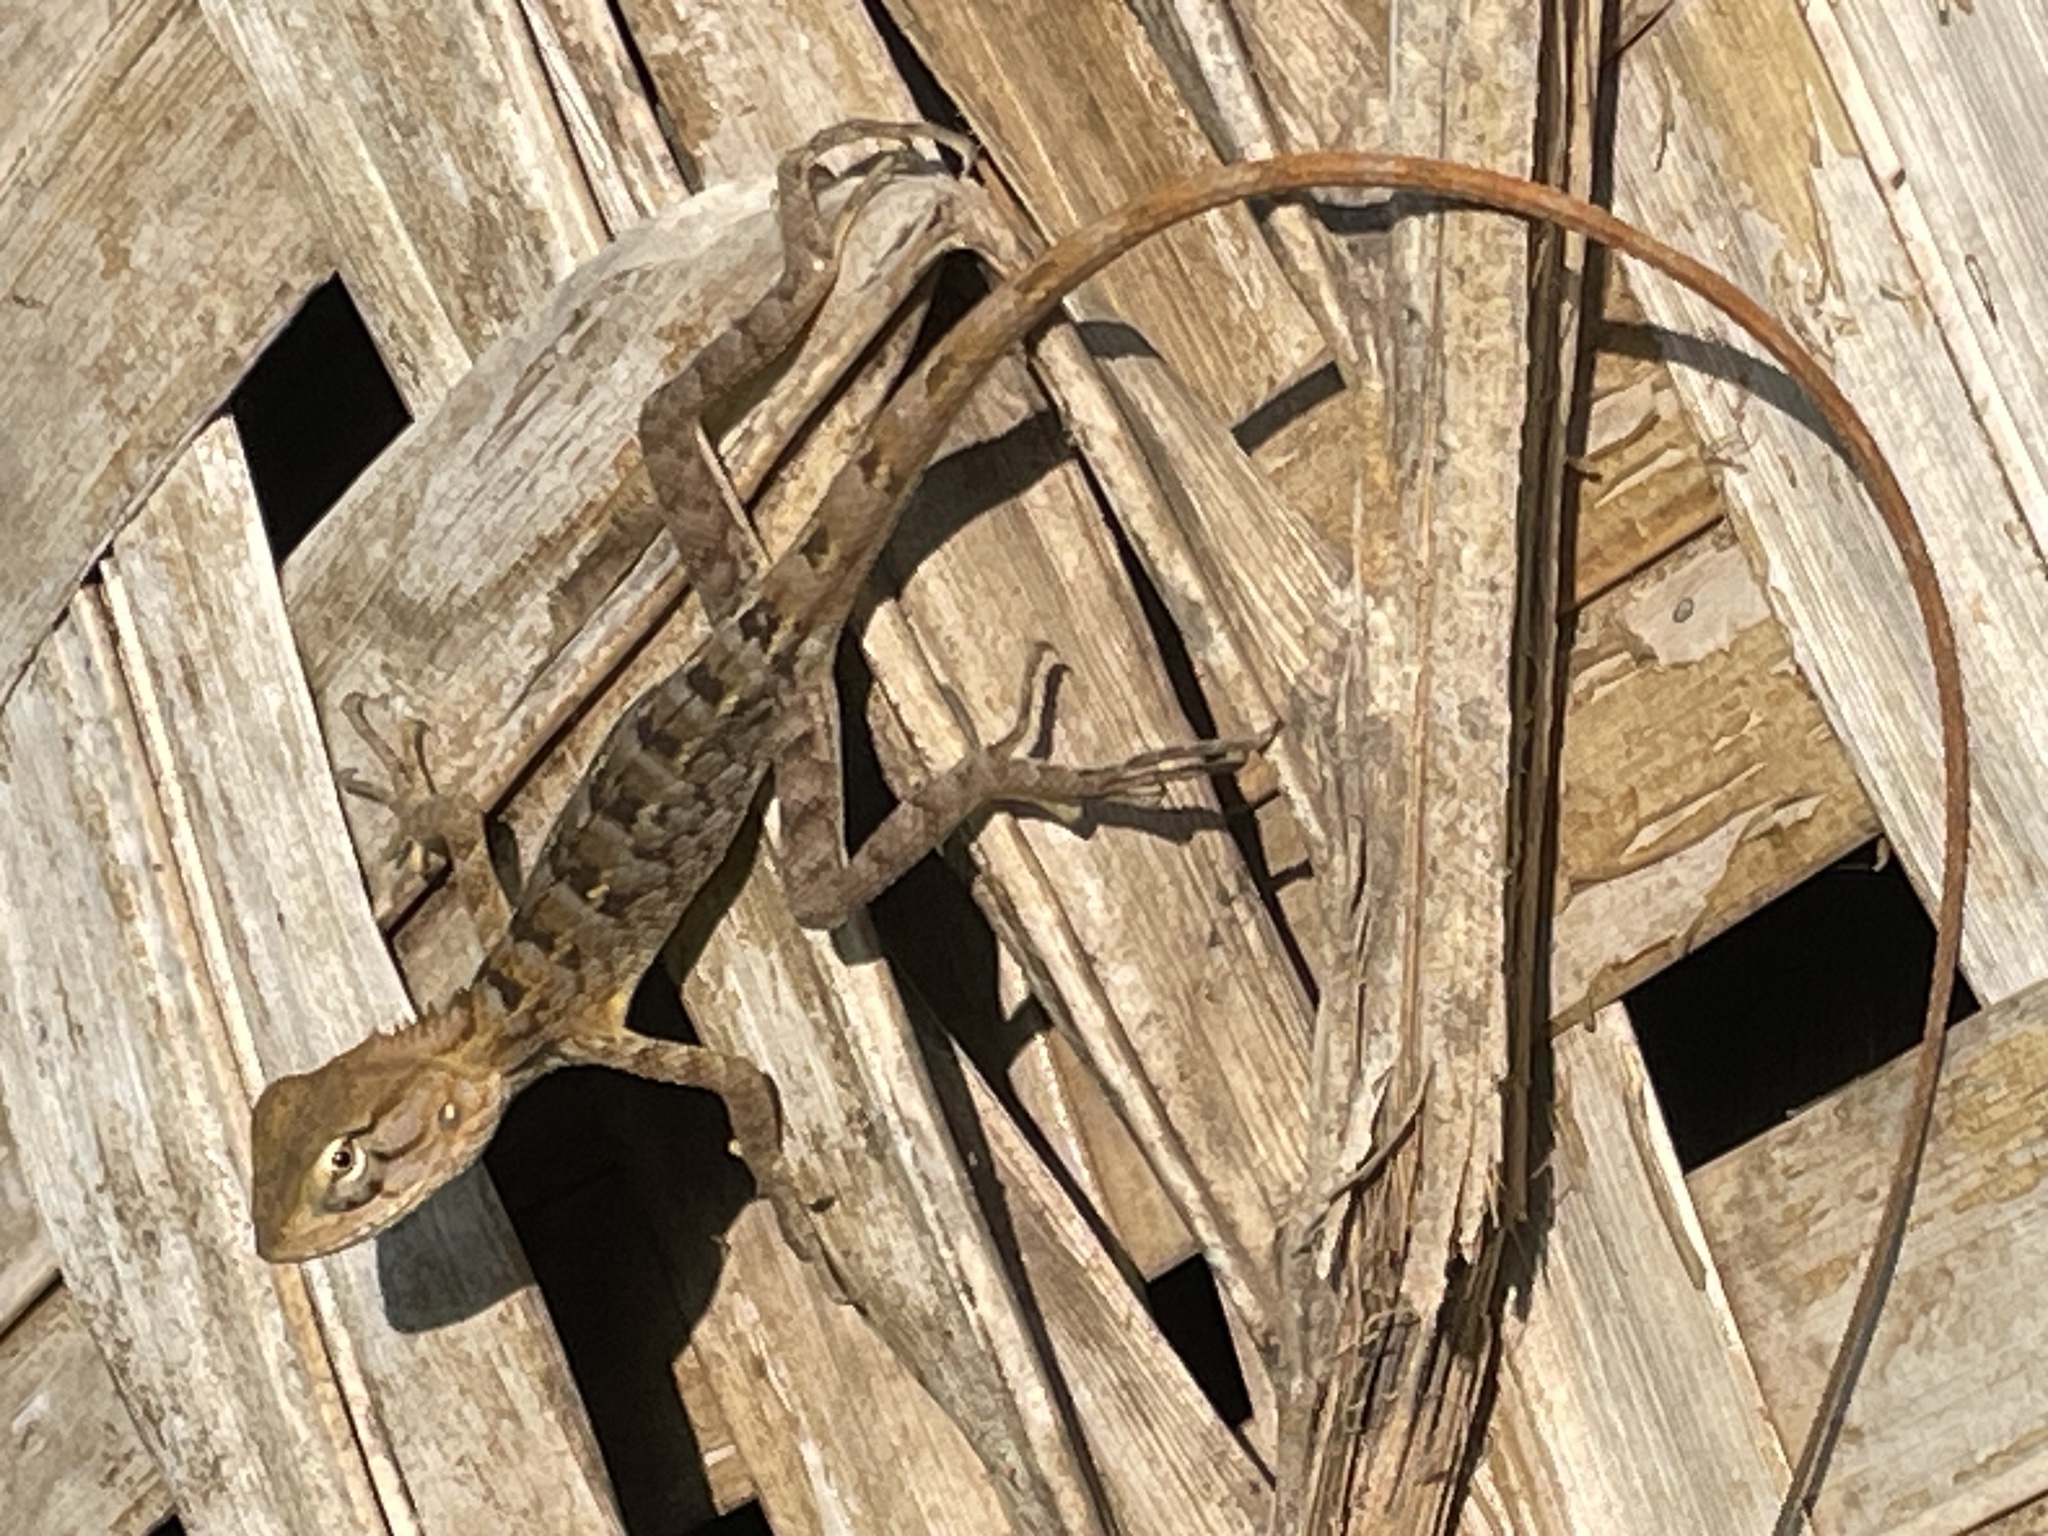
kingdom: Animalia
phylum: Chordata
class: Squamata
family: Agamidae
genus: Calotes
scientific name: Calotes versicolor
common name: Oriental garden lizard
